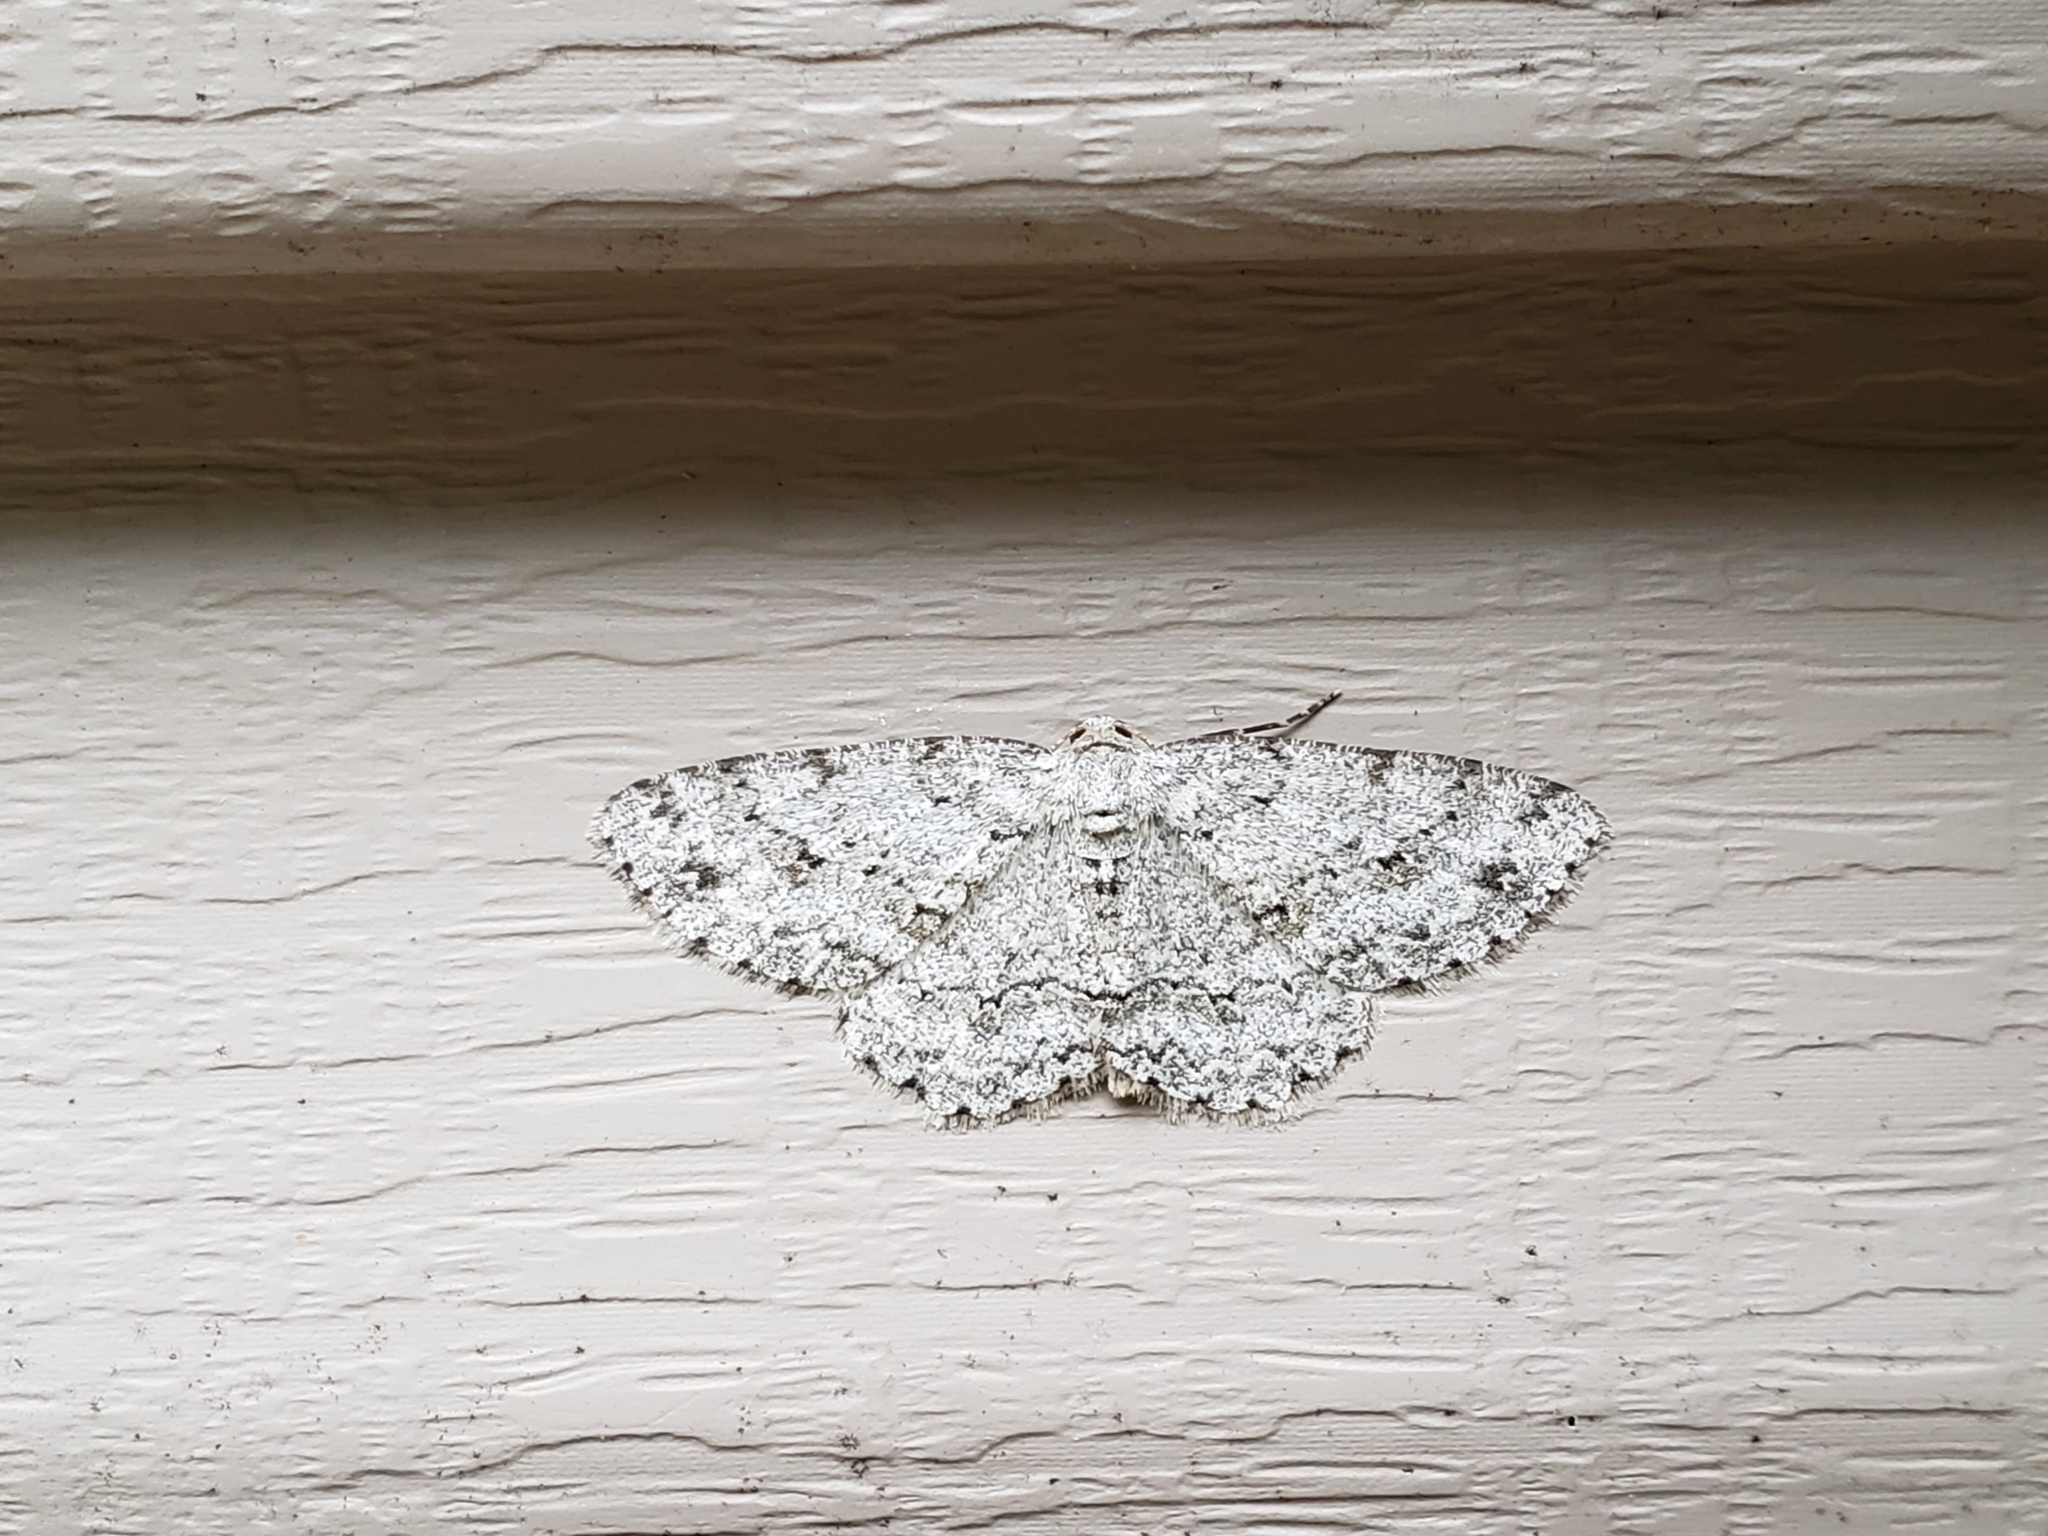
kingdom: Animalia
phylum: Arthropoda
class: Insecta
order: Lepidoptera
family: Geometridae
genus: Protoboarmia
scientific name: Protoboarmia porcelaria
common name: Porcelain gray
